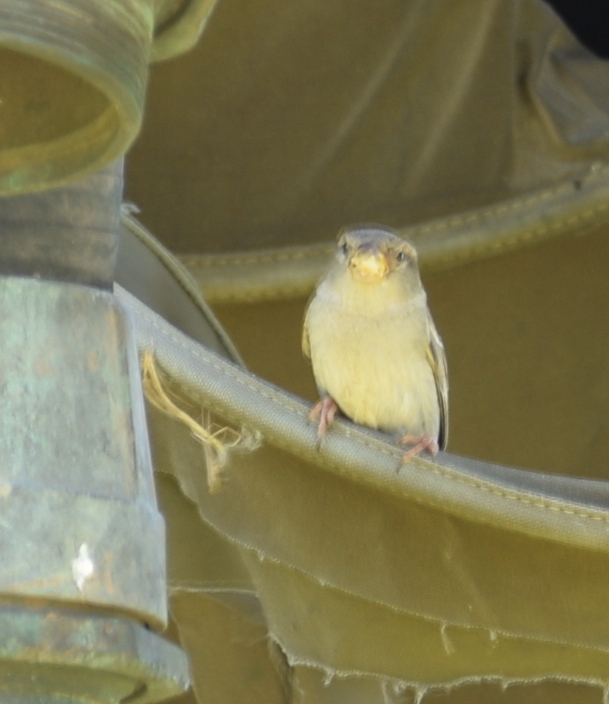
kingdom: Animalia
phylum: Chordata
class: Aves
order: Passeriformes
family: Passeridae
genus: Passer
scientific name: Passer domesticus
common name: House sparrow
